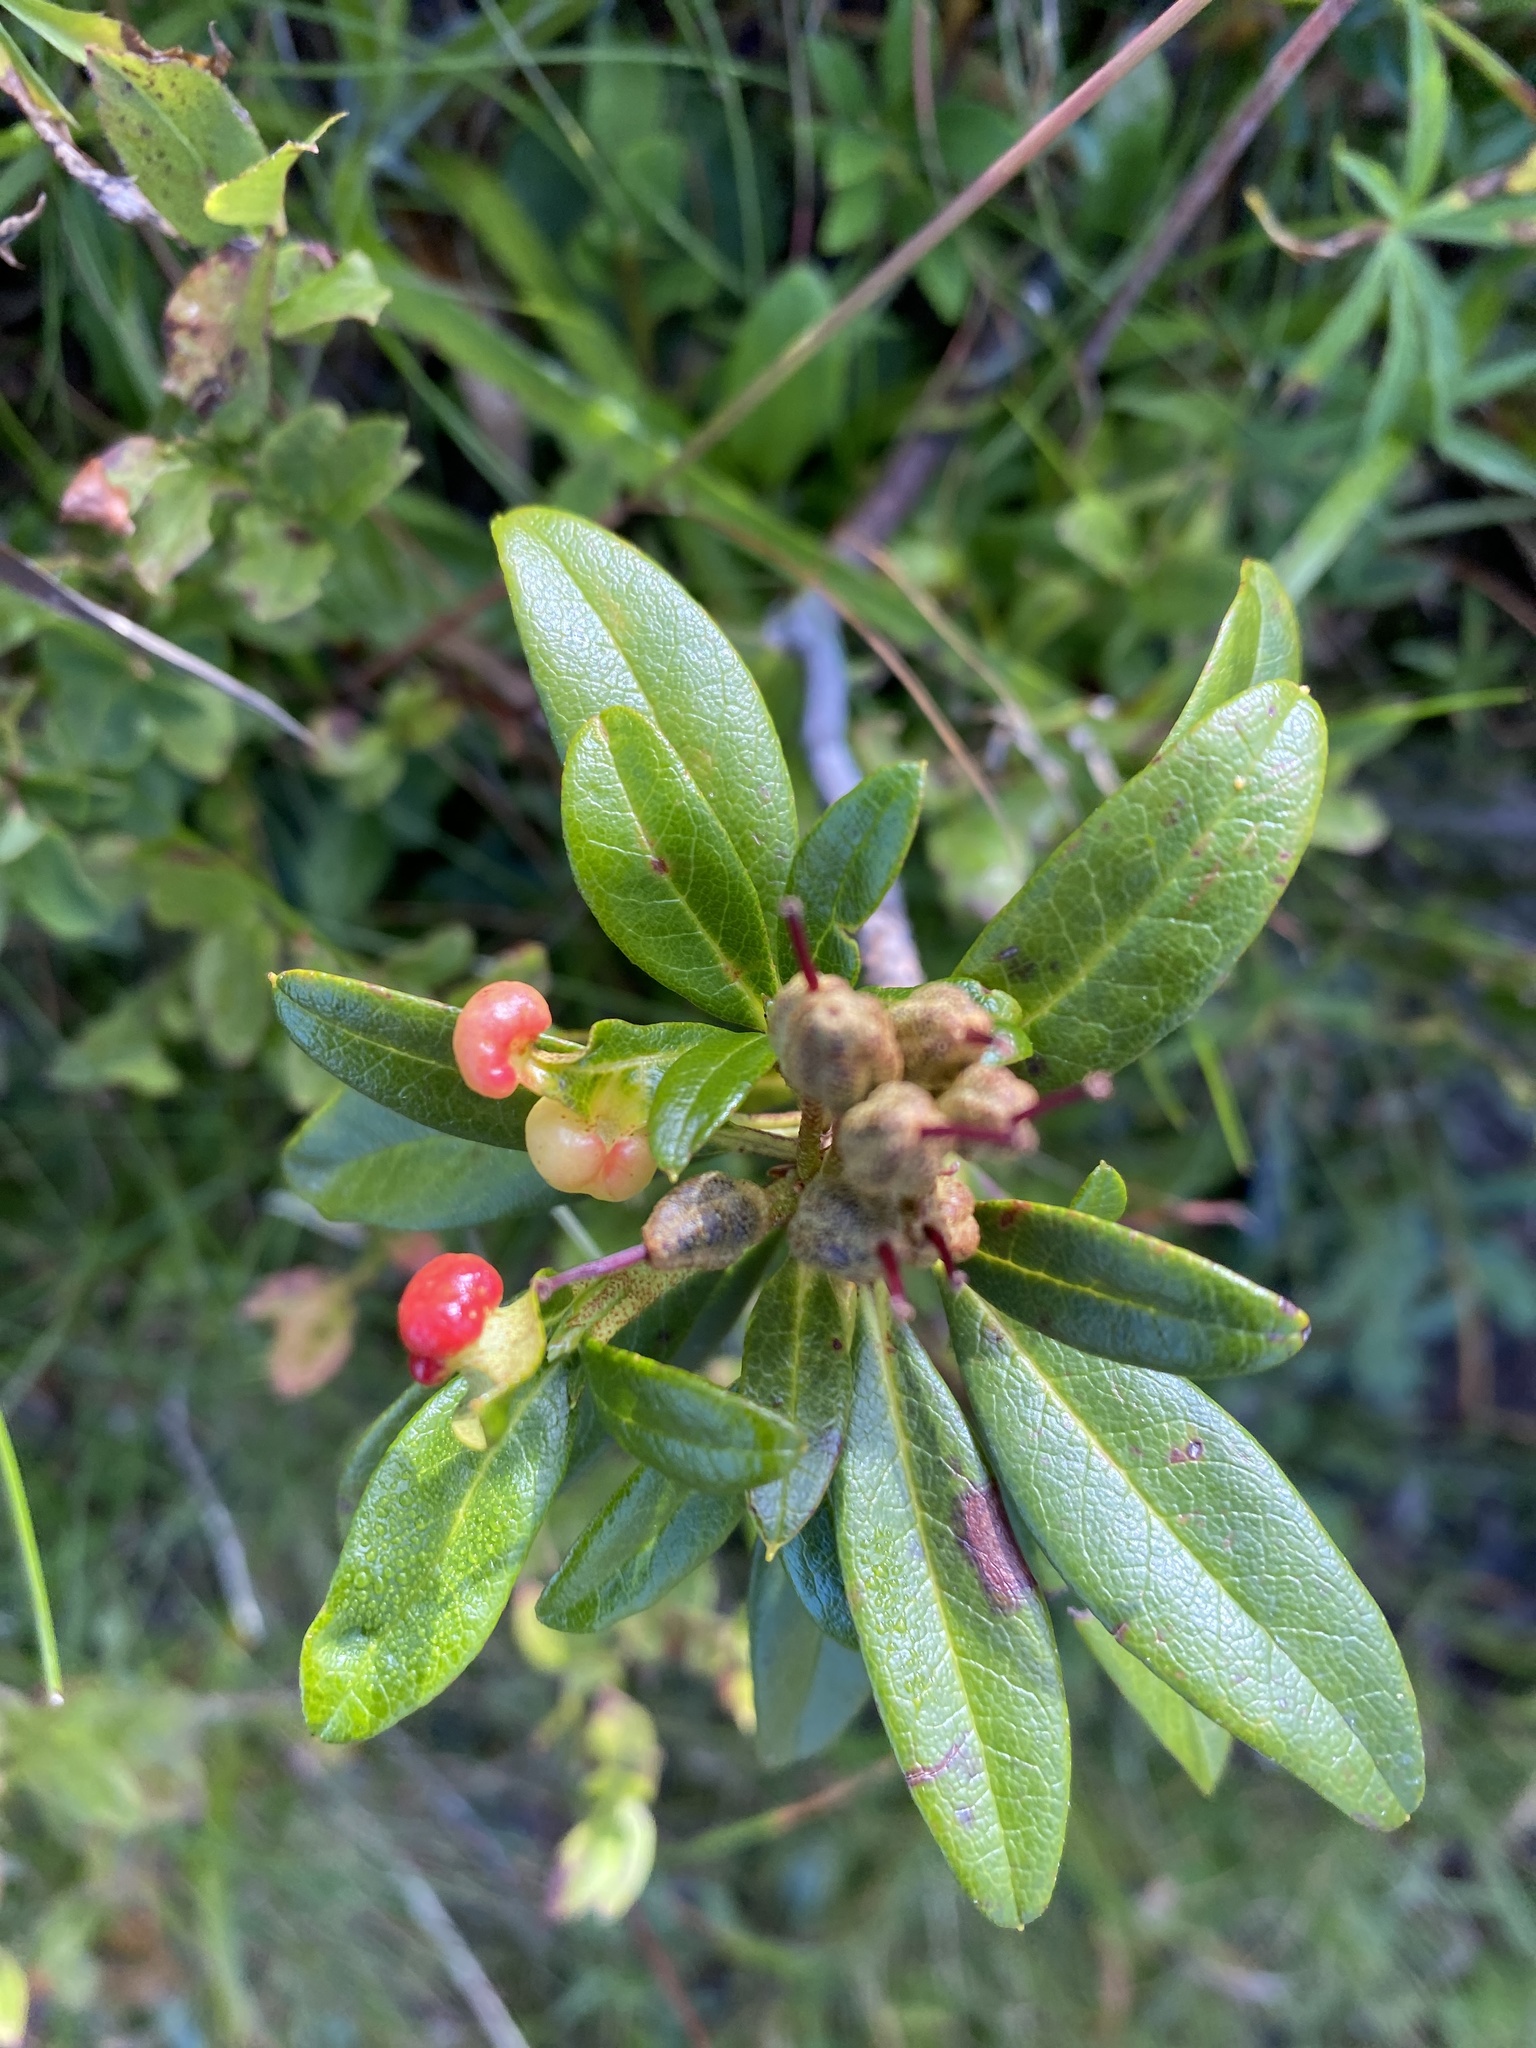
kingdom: Plantae
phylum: Tracheophyta
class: Magnoliopsida
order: Ericales
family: Ericaceae
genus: Rhododendron
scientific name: Rhododendron ferrugineum
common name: Alpenrose
